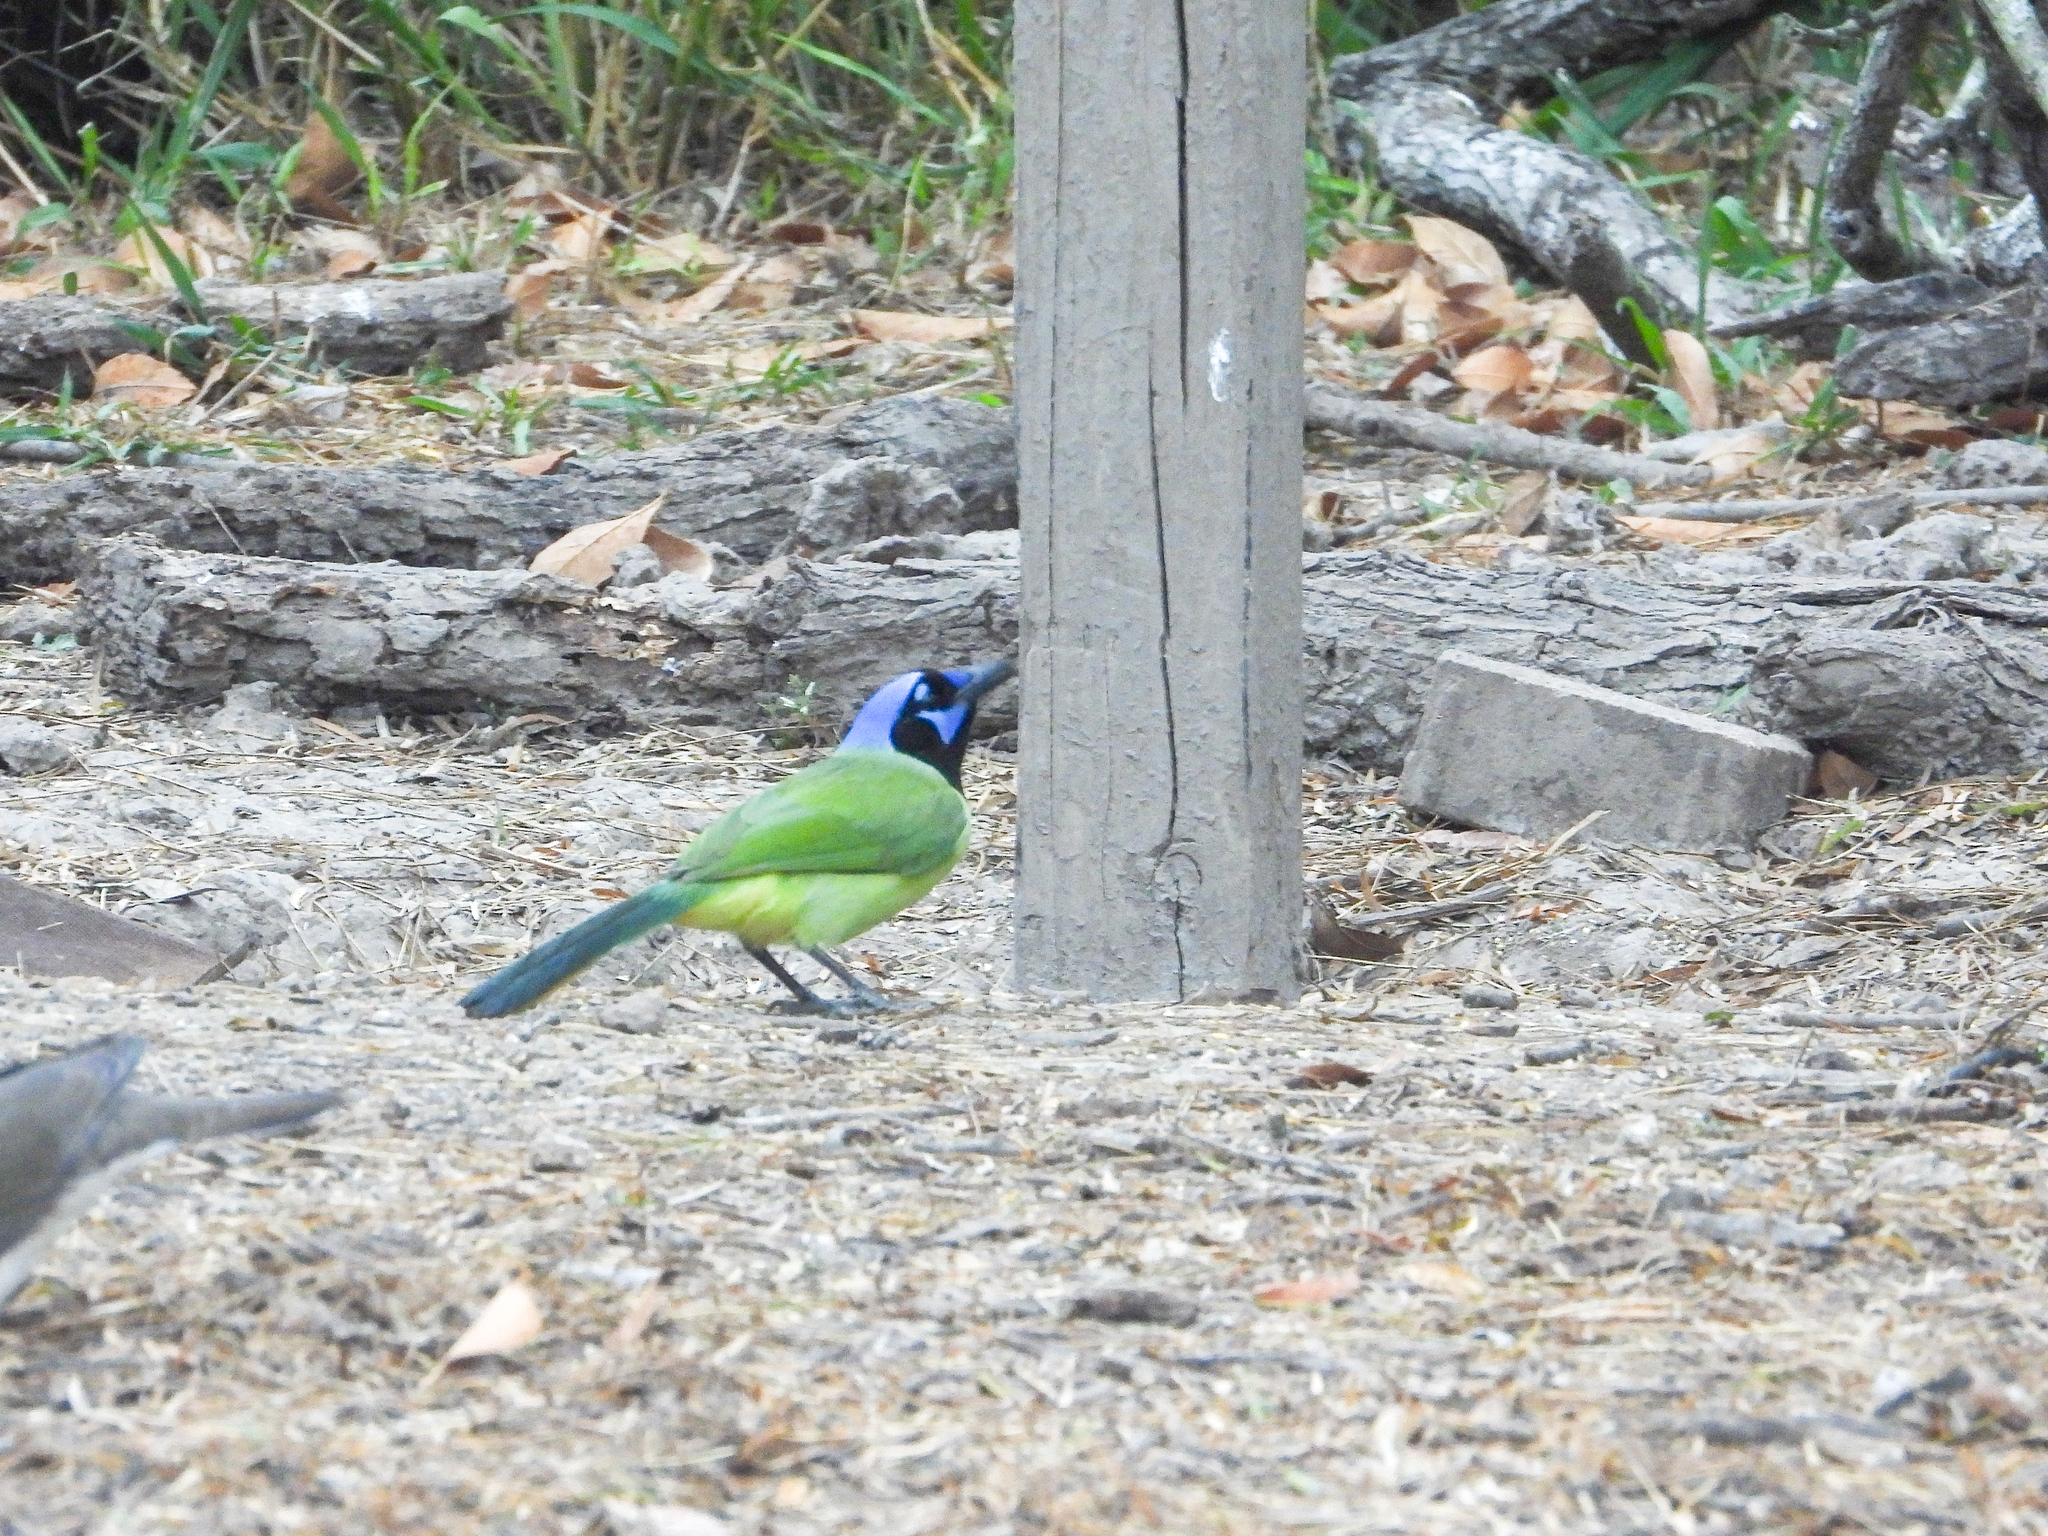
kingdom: Animalia
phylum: Chordata
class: Aves
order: Passeriformes
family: Corvidae
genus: Cyanocorax
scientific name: Cyanocorax yncas
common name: Green jay
